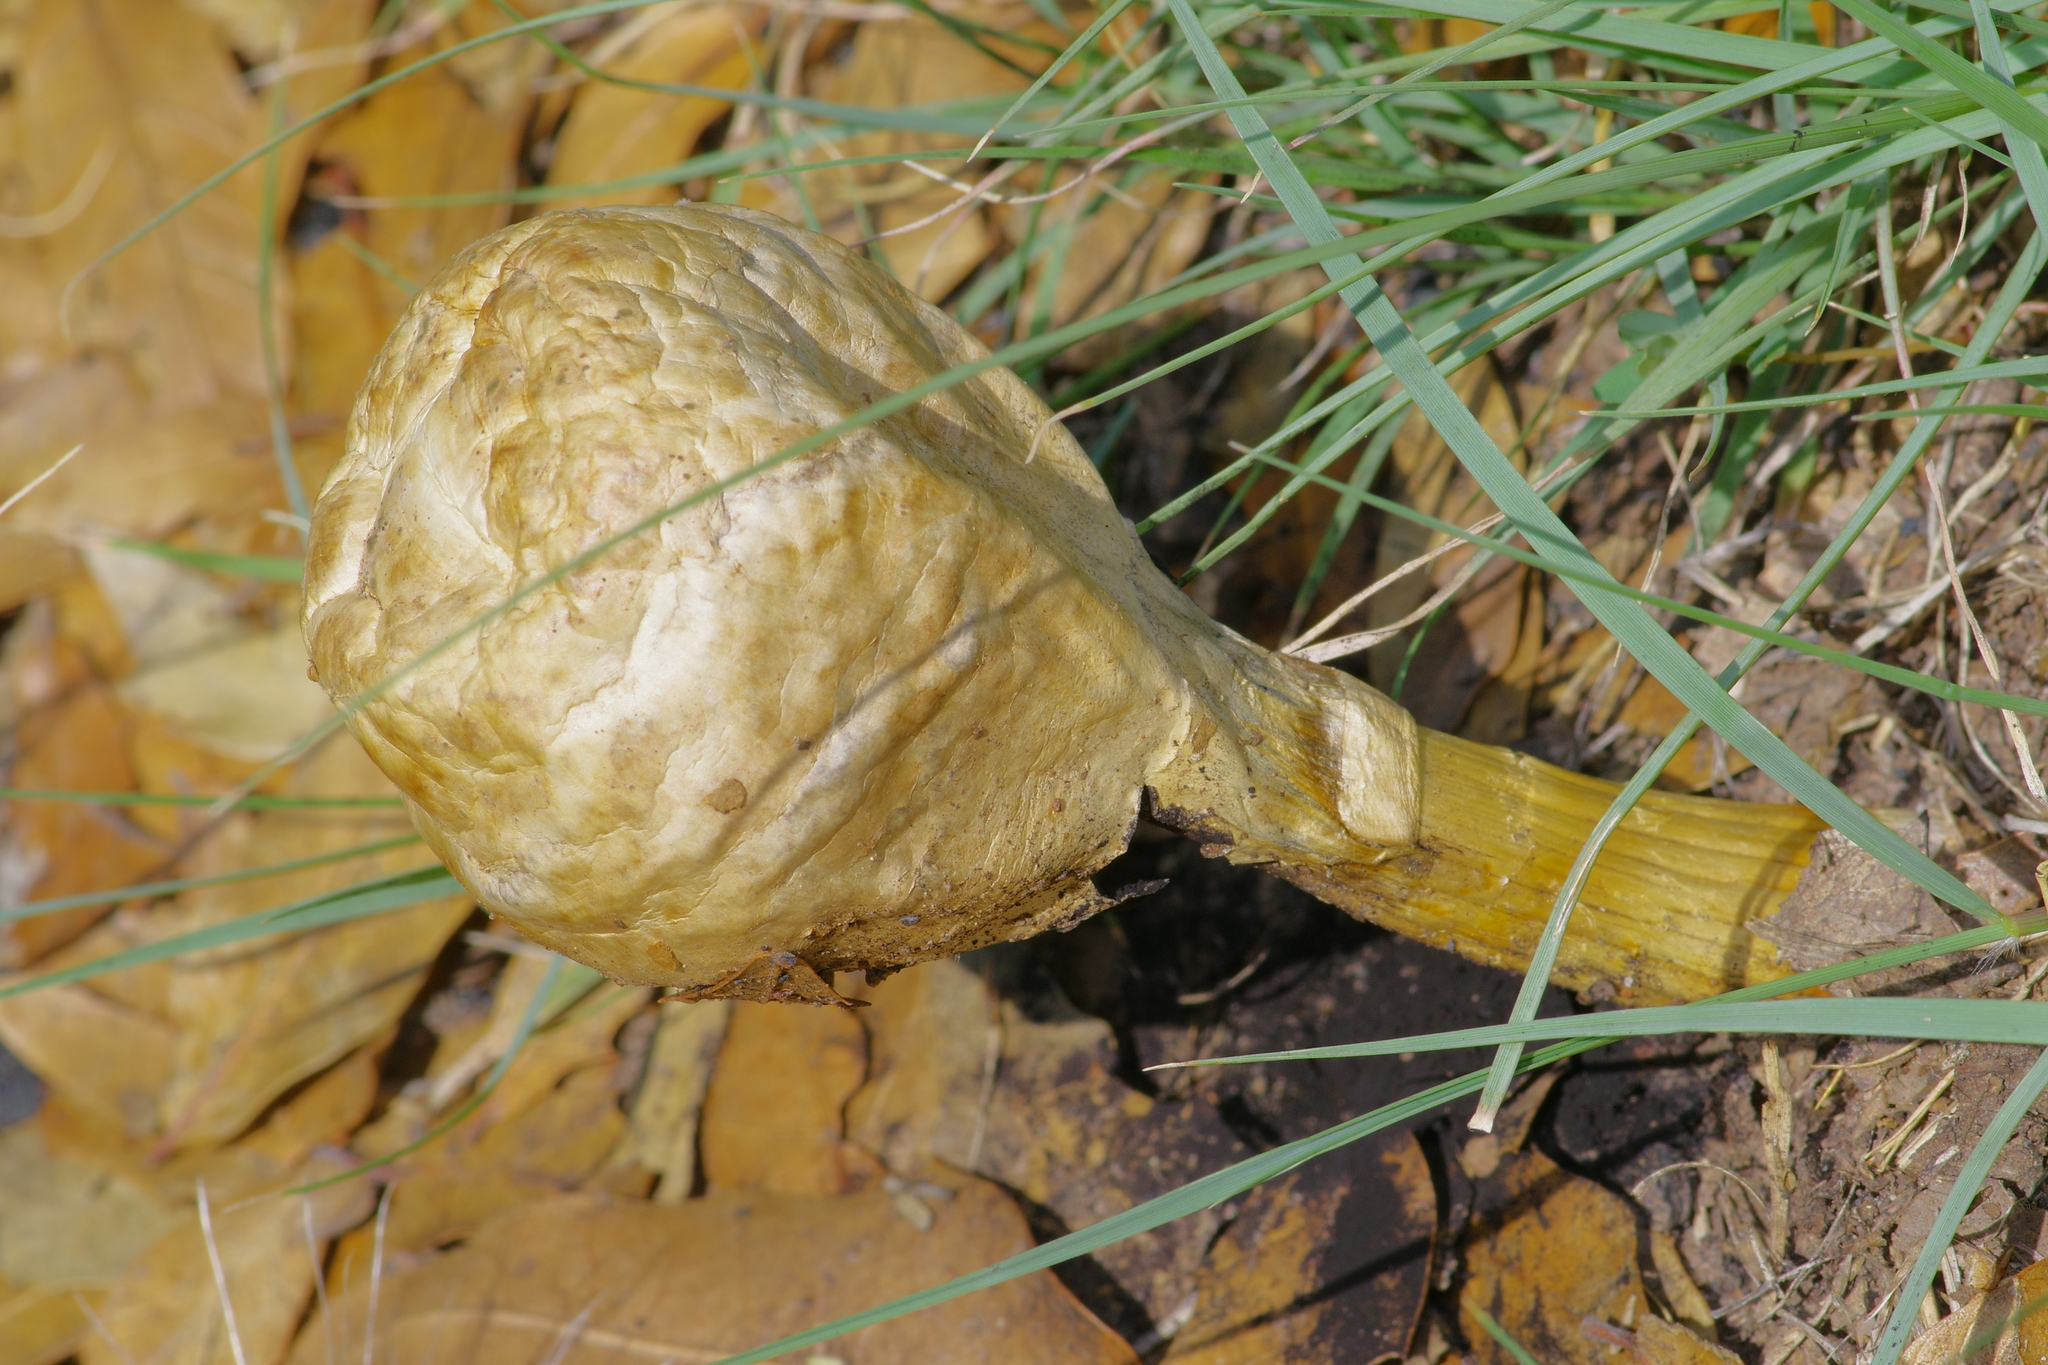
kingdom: Fungi
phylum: Basidiomycota
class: Agaricomycetes
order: Agaricales
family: Agaricaceae
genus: Podaxis
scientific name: Podaxis pistillaris
